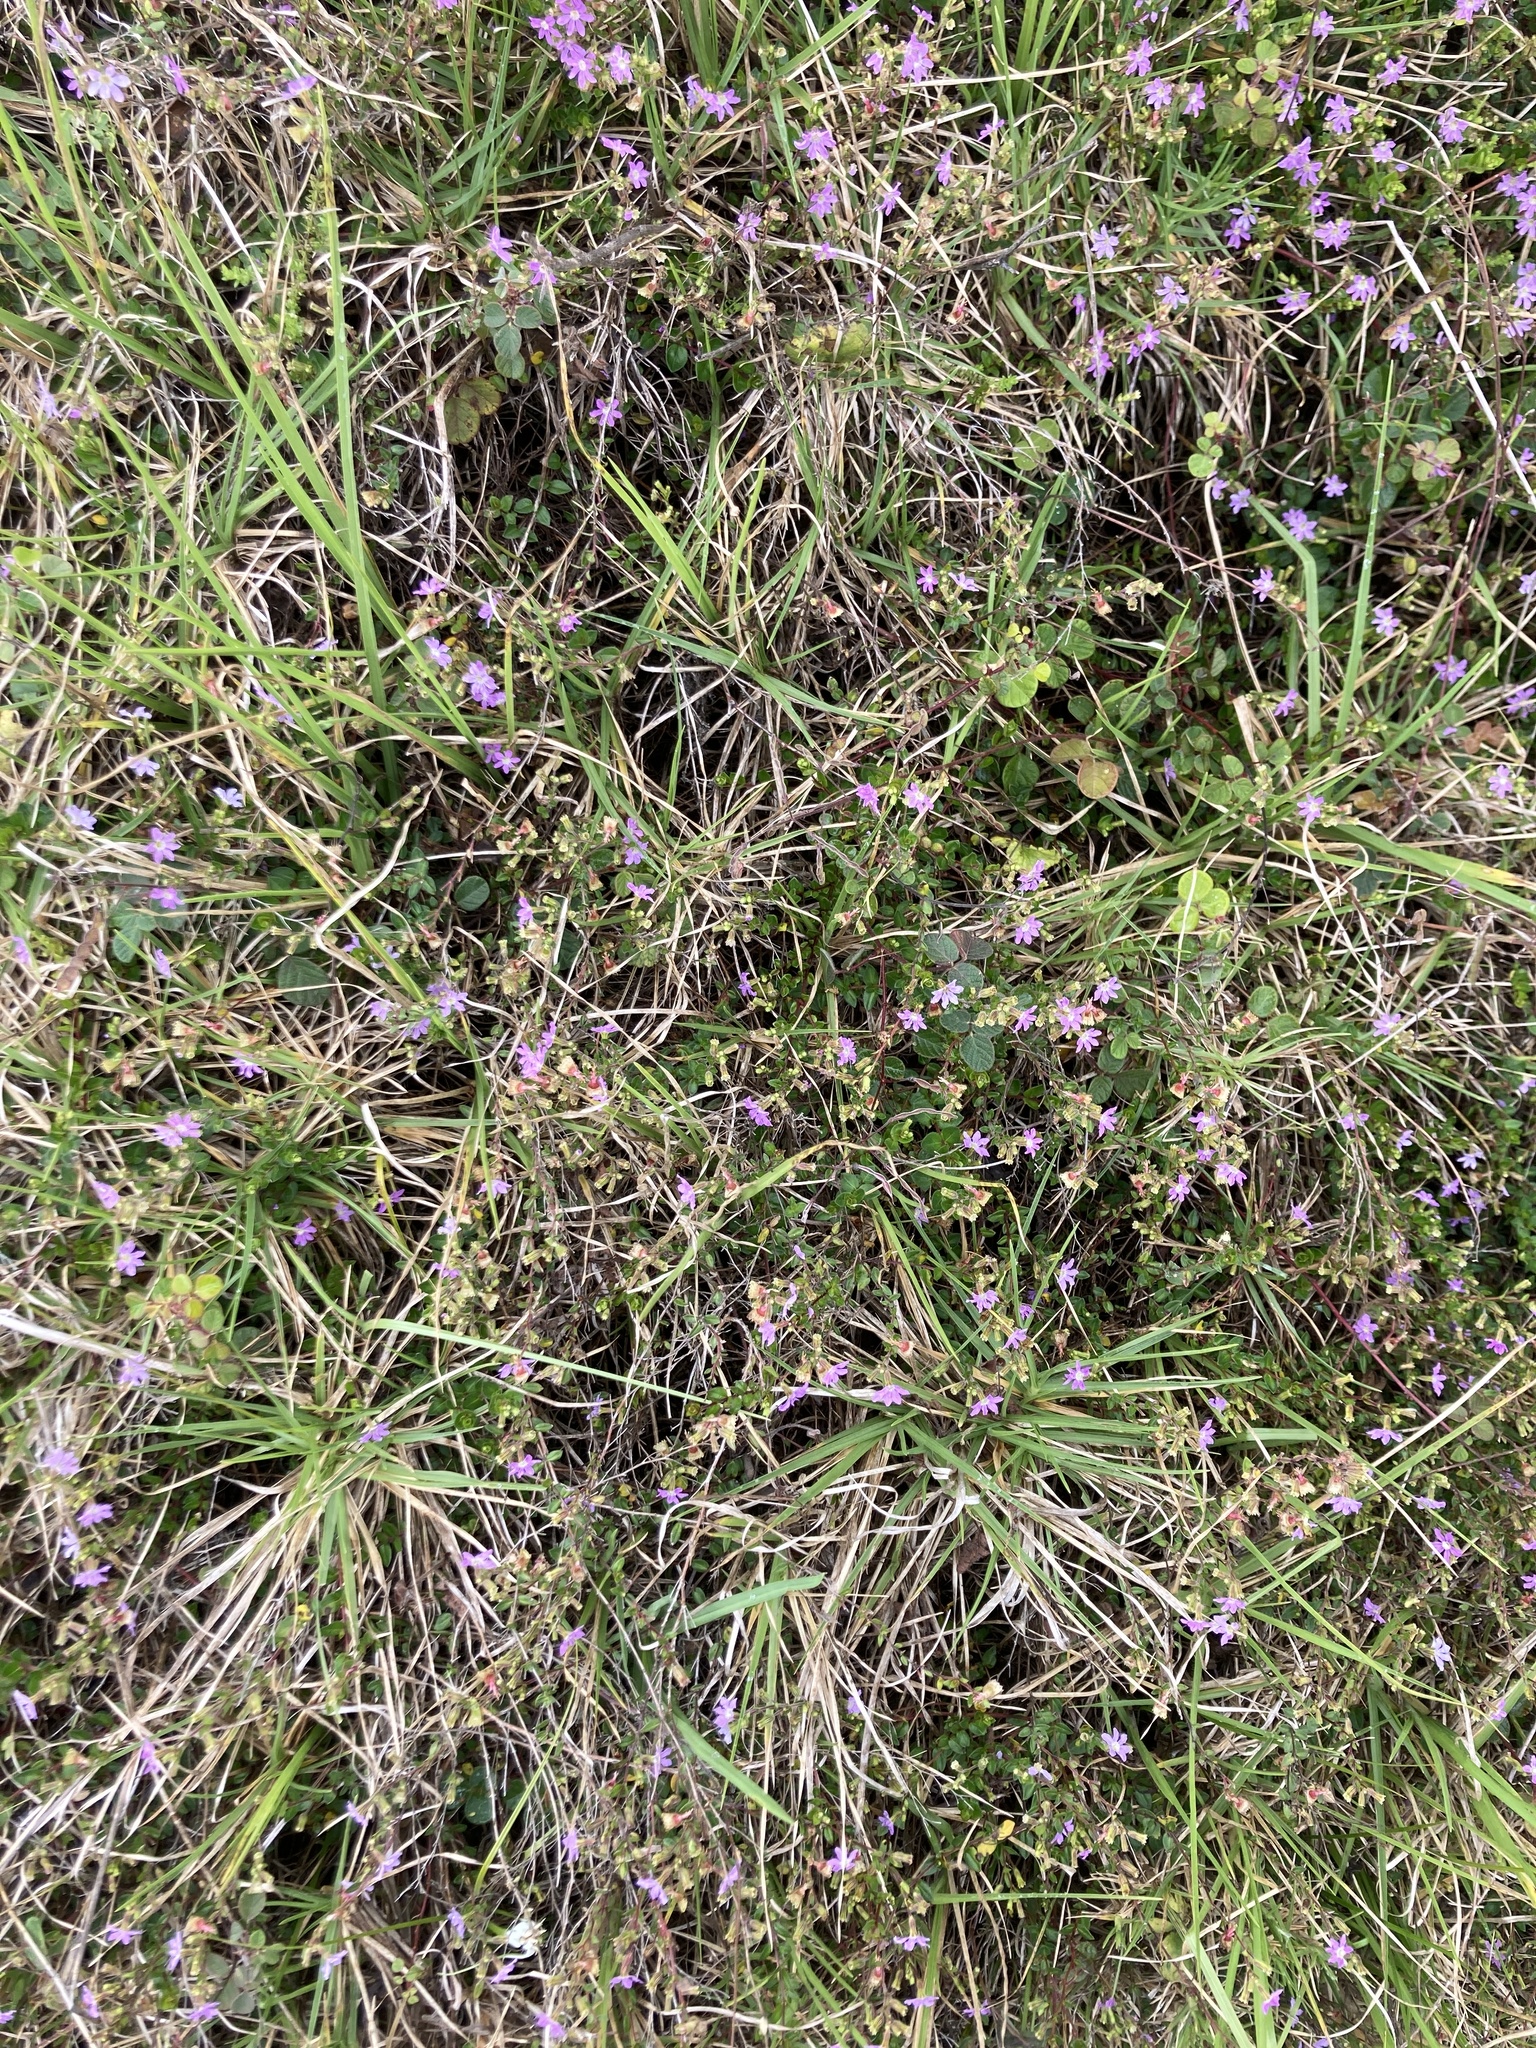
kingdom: Plantae
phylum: Tracheophyta
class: Magnoliopsida
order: Myrtales
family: Lythraceae
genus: Cuphea
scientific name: Cuphea ciliata
